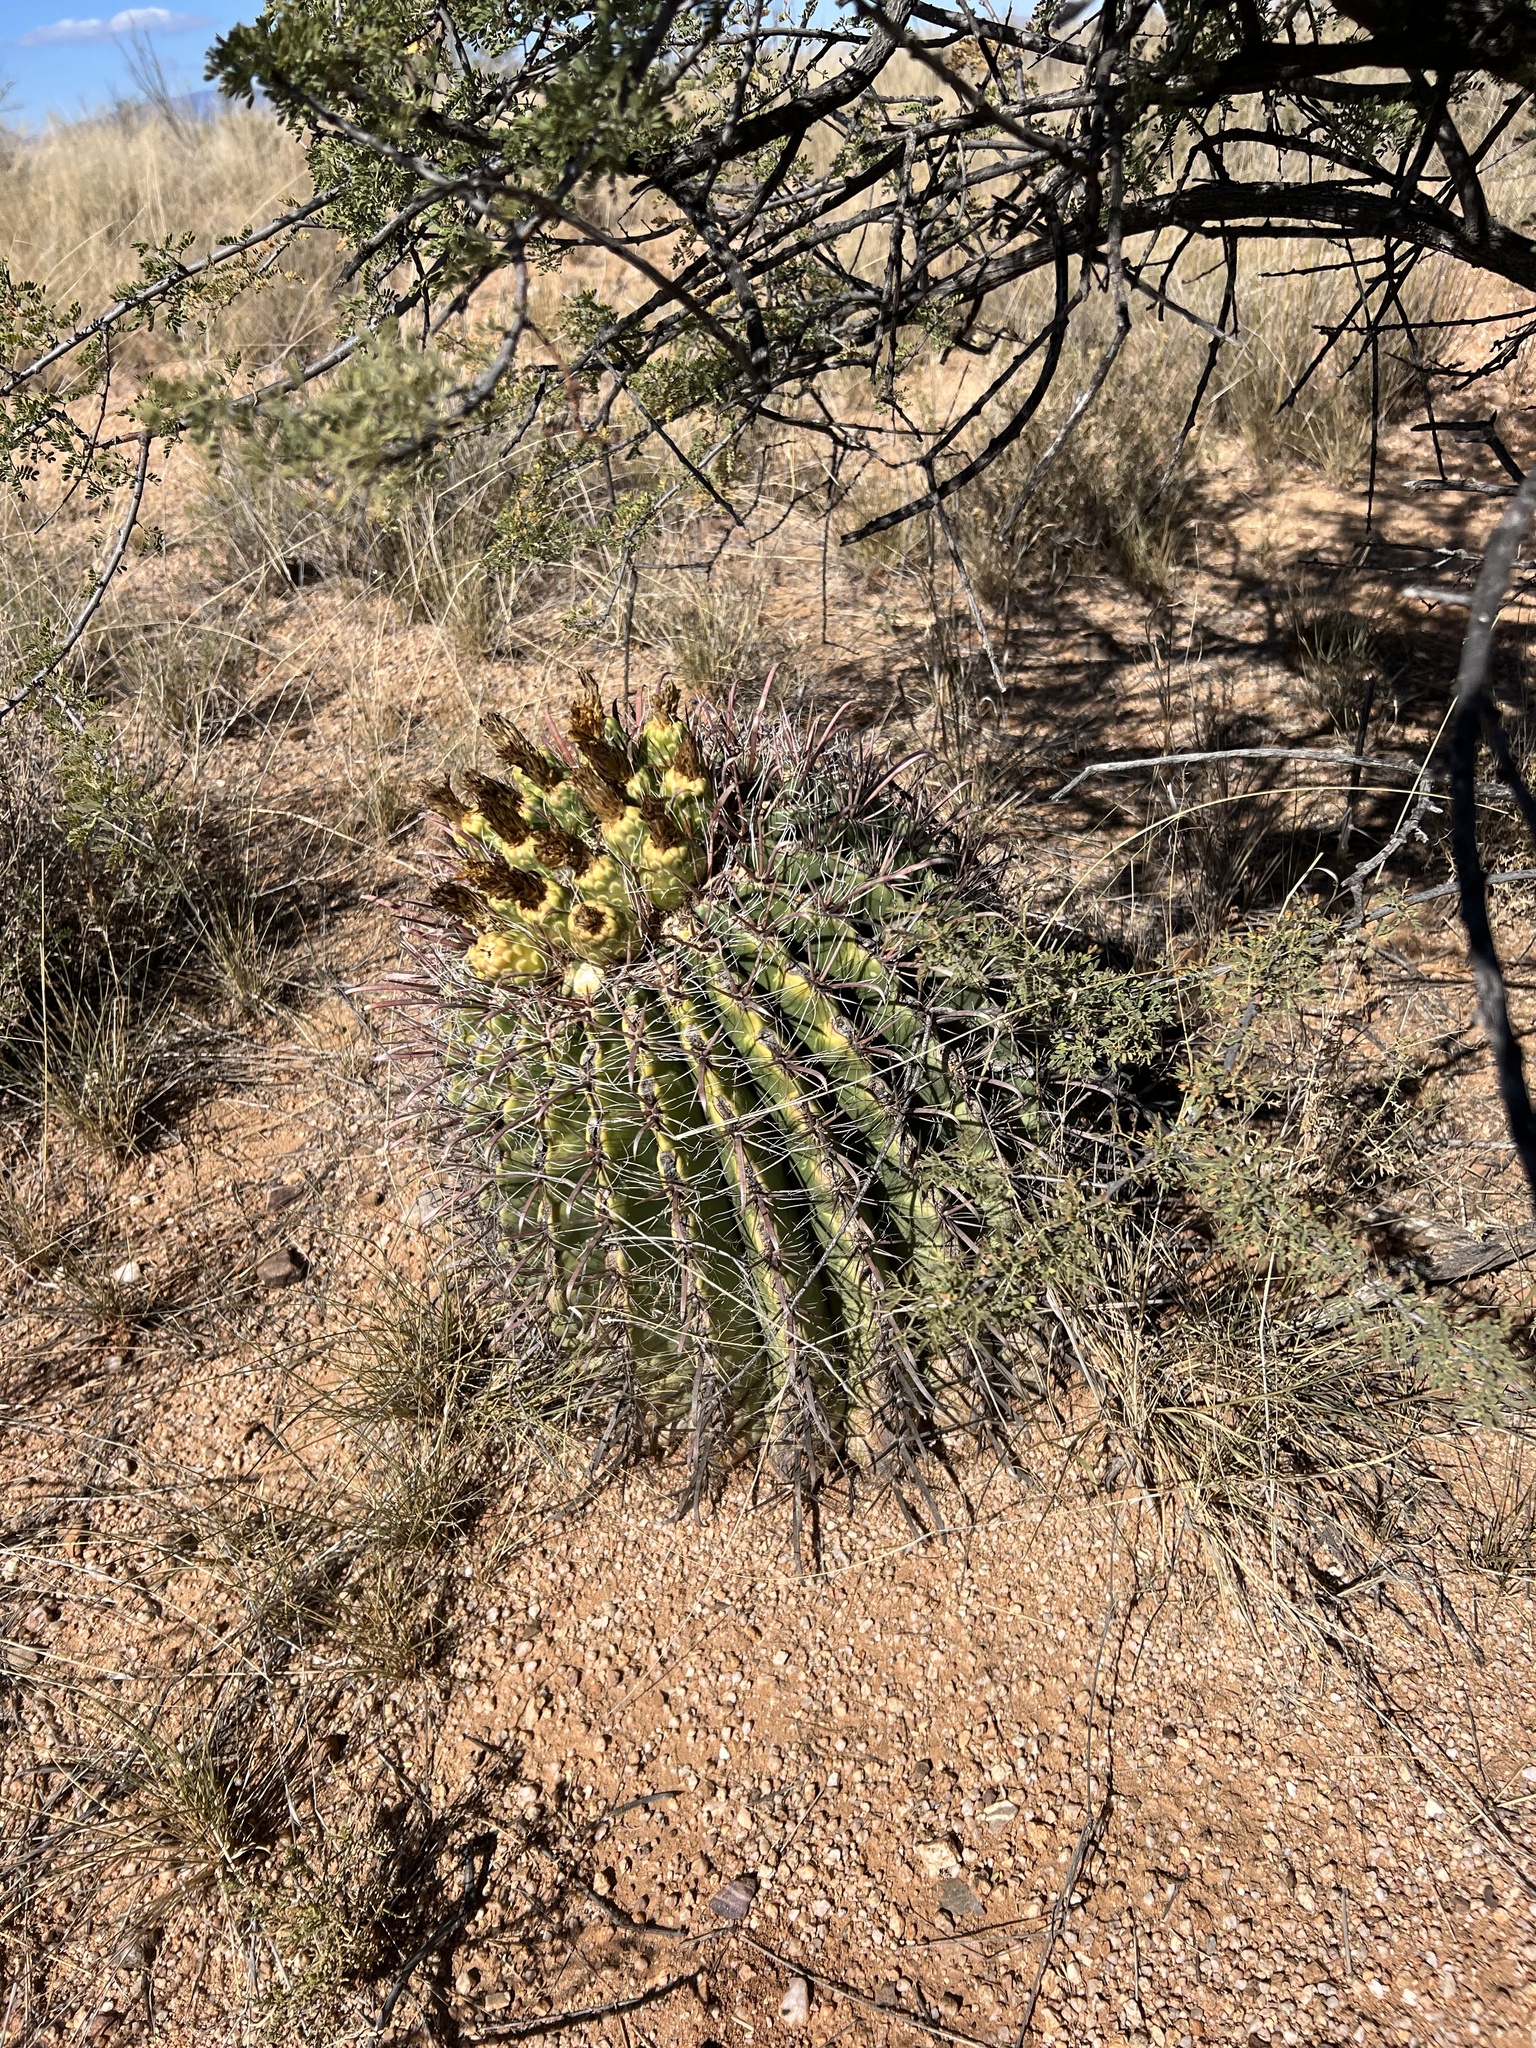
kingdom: Plantae
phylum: Tracheophyta
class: Magnoliopsida
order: Caryophyllales
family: Cactaceae
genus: Ferocactus
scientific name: Ferocactus wislizeni
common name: Candy barrel cactus
